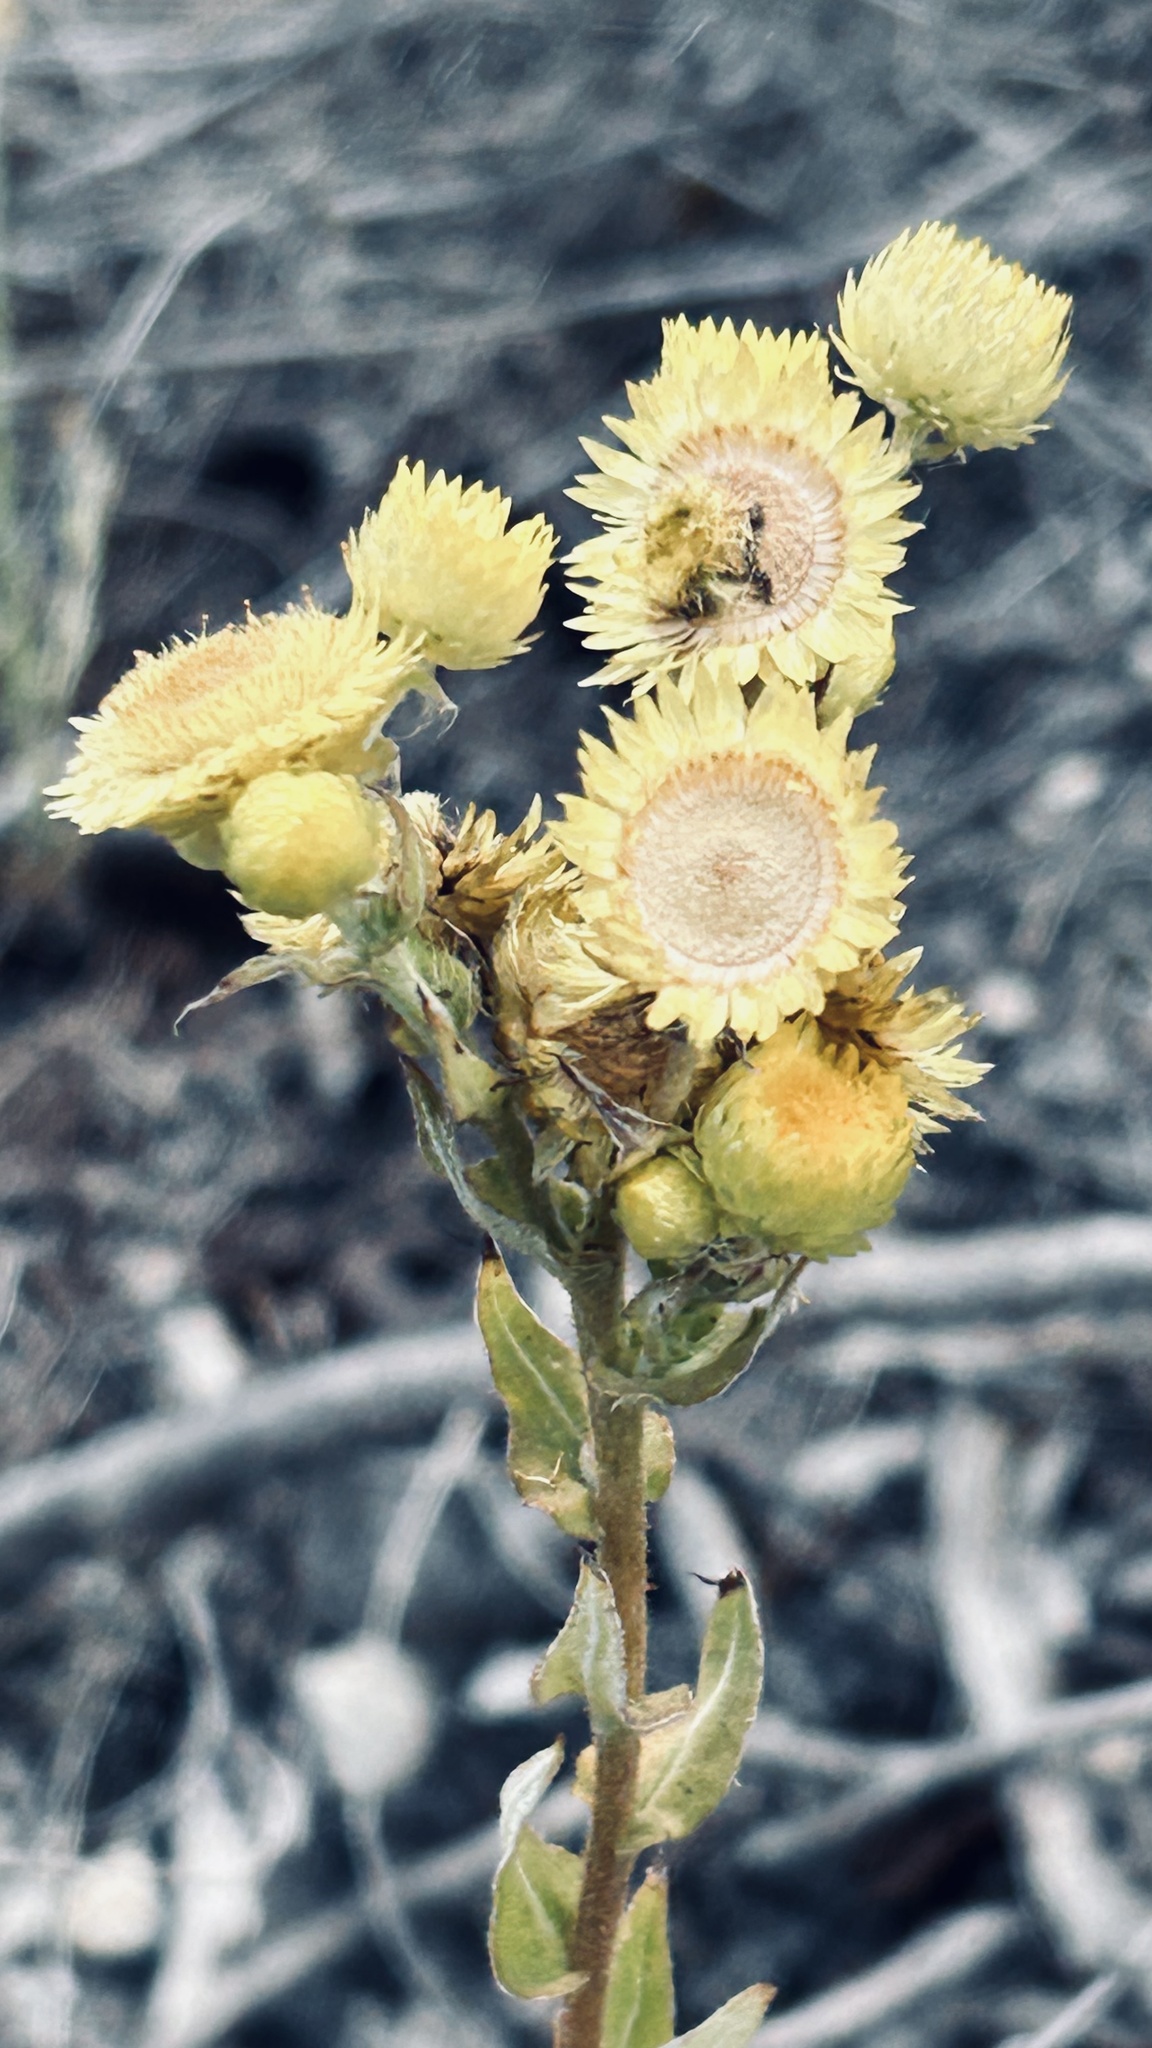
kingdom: Plantae
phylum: Tracheophyta
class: Magnoliopsida
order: Asterales
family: Asteraceae
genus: Helichrysum
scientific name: Helichrysum foetidum
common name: Stinking everlasting
